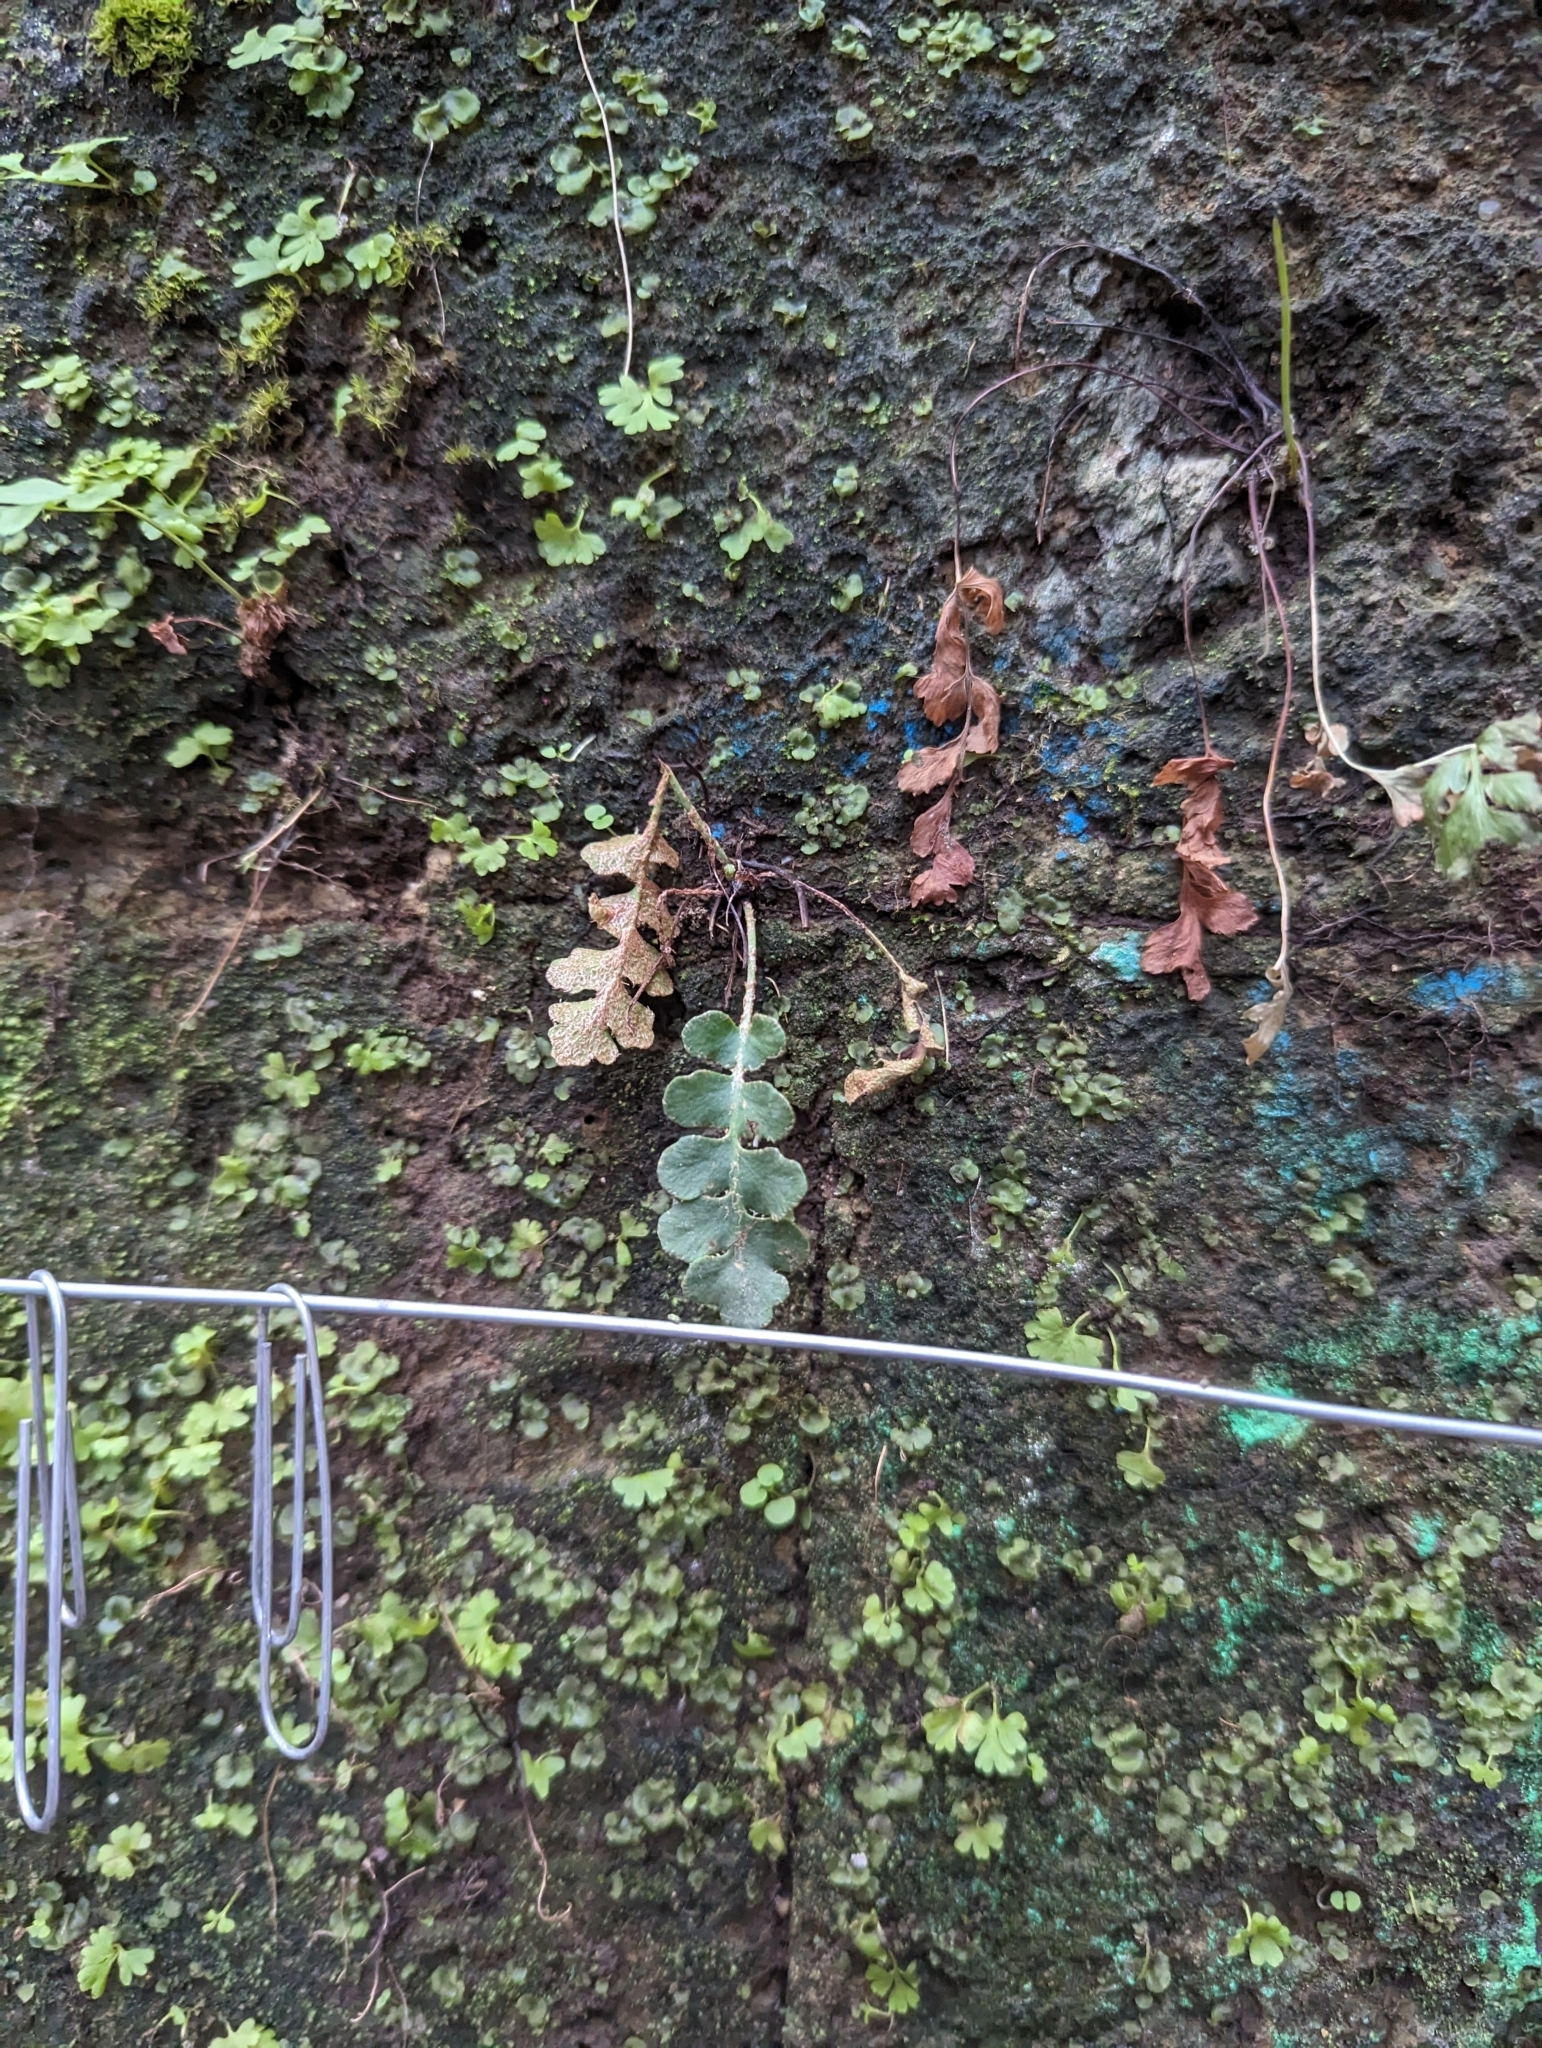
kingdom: Plantae
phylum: Tracheophyta
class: Polypodiopsida
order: Polypodiales
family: Aspleniaceae
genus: Asplenium
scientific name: Asplenium ceterach
